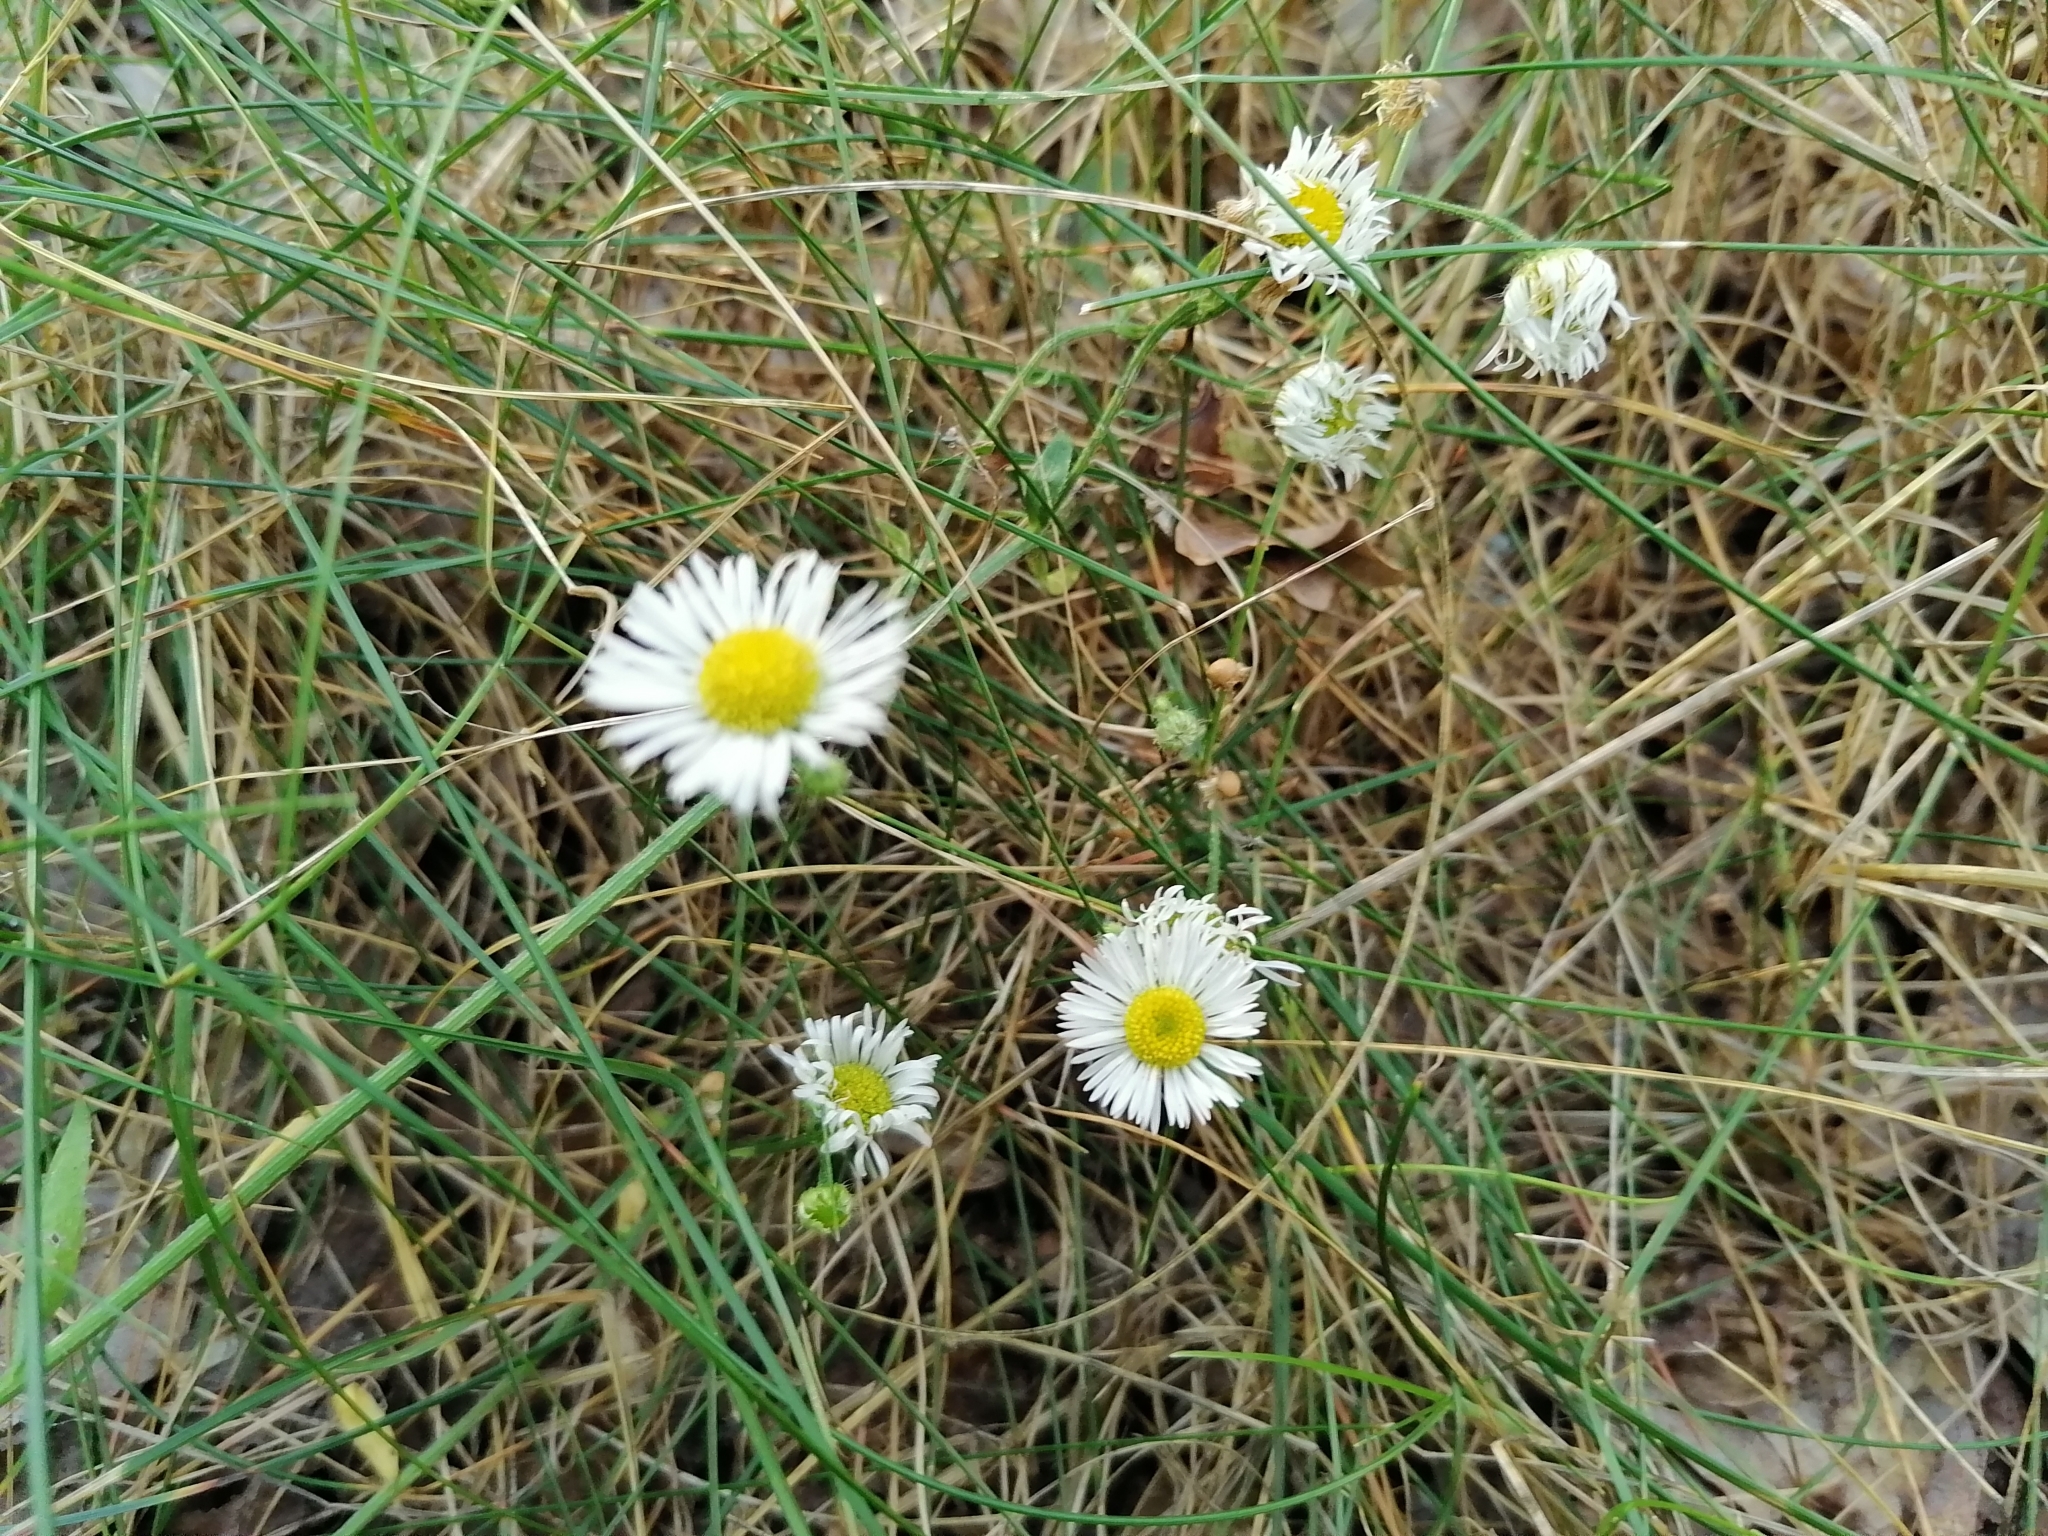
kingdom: Plantae
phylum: Tracheophyta
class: Magnoliopsida
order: Asterales
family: Asteraceae
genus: Erigeron
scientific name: Erigeron annuus
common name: Tall fleabane
